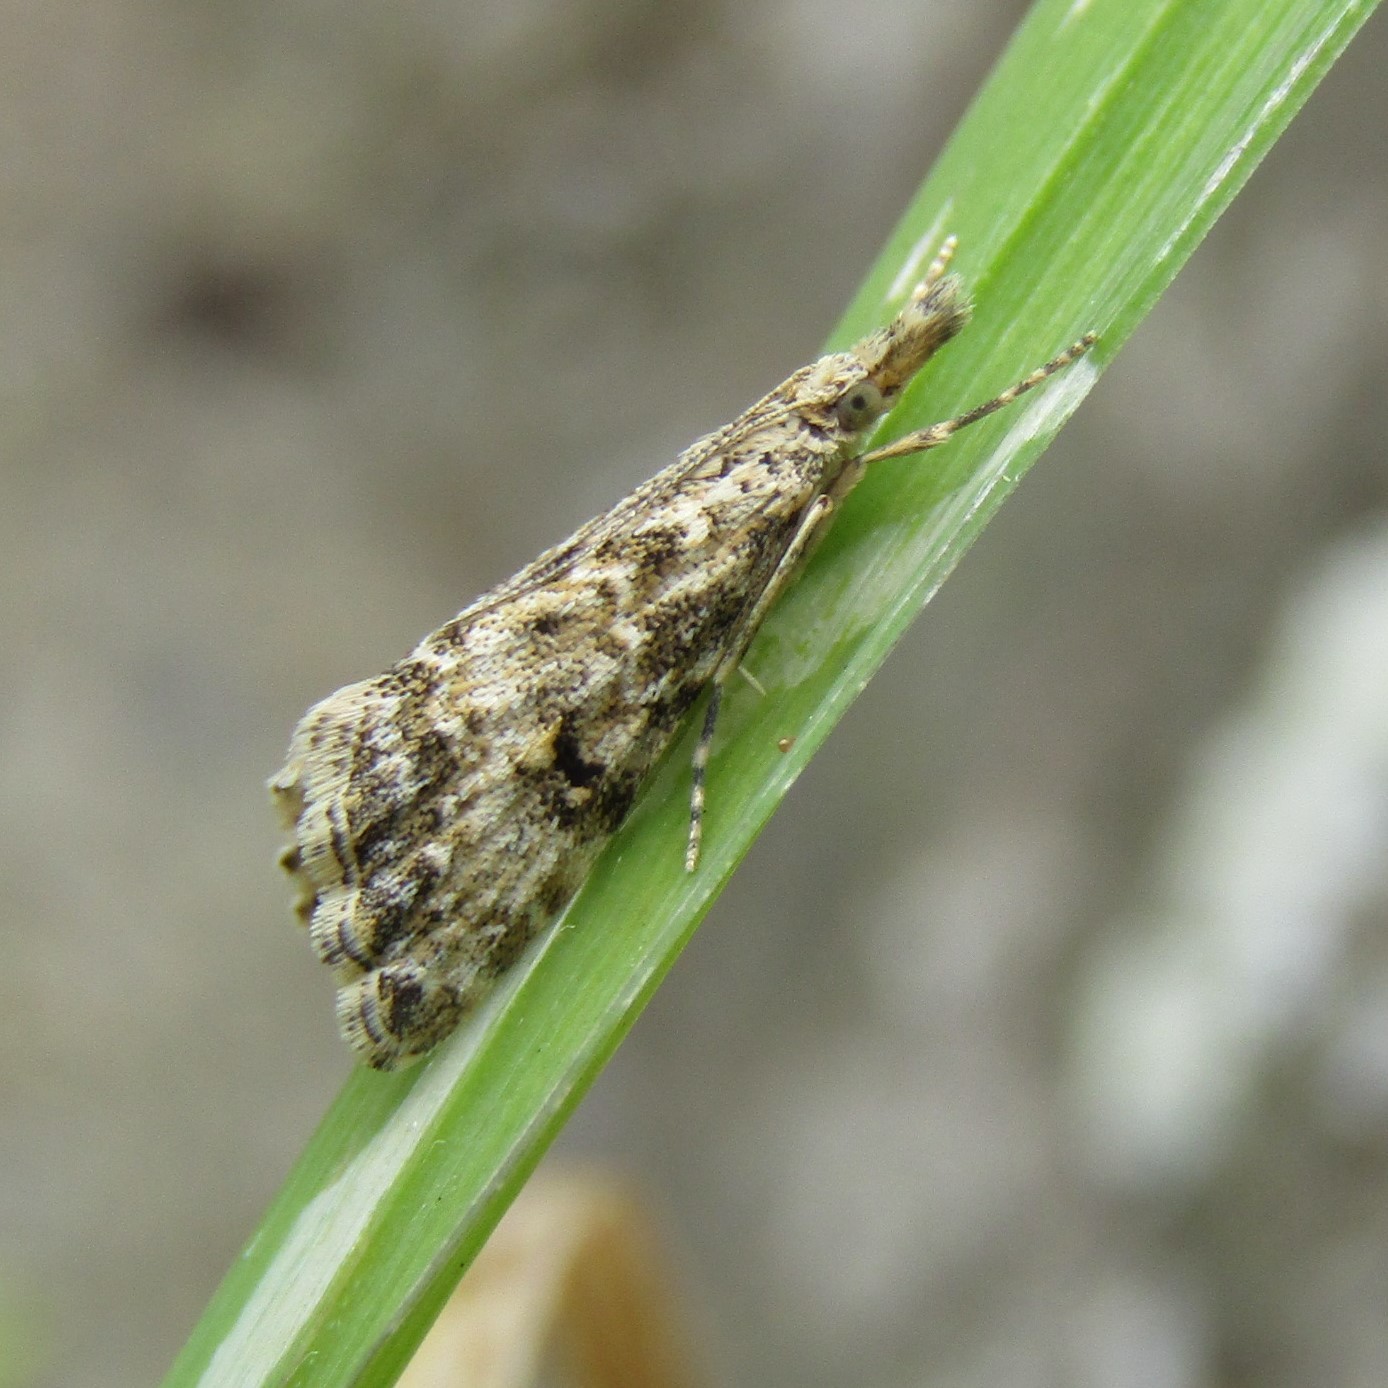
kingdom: Animalia
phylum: Arthropoda
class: Insecta
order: Lepidoptera
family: Crambidae
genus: Glaucocharis
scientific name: Glaucocharis elaina
